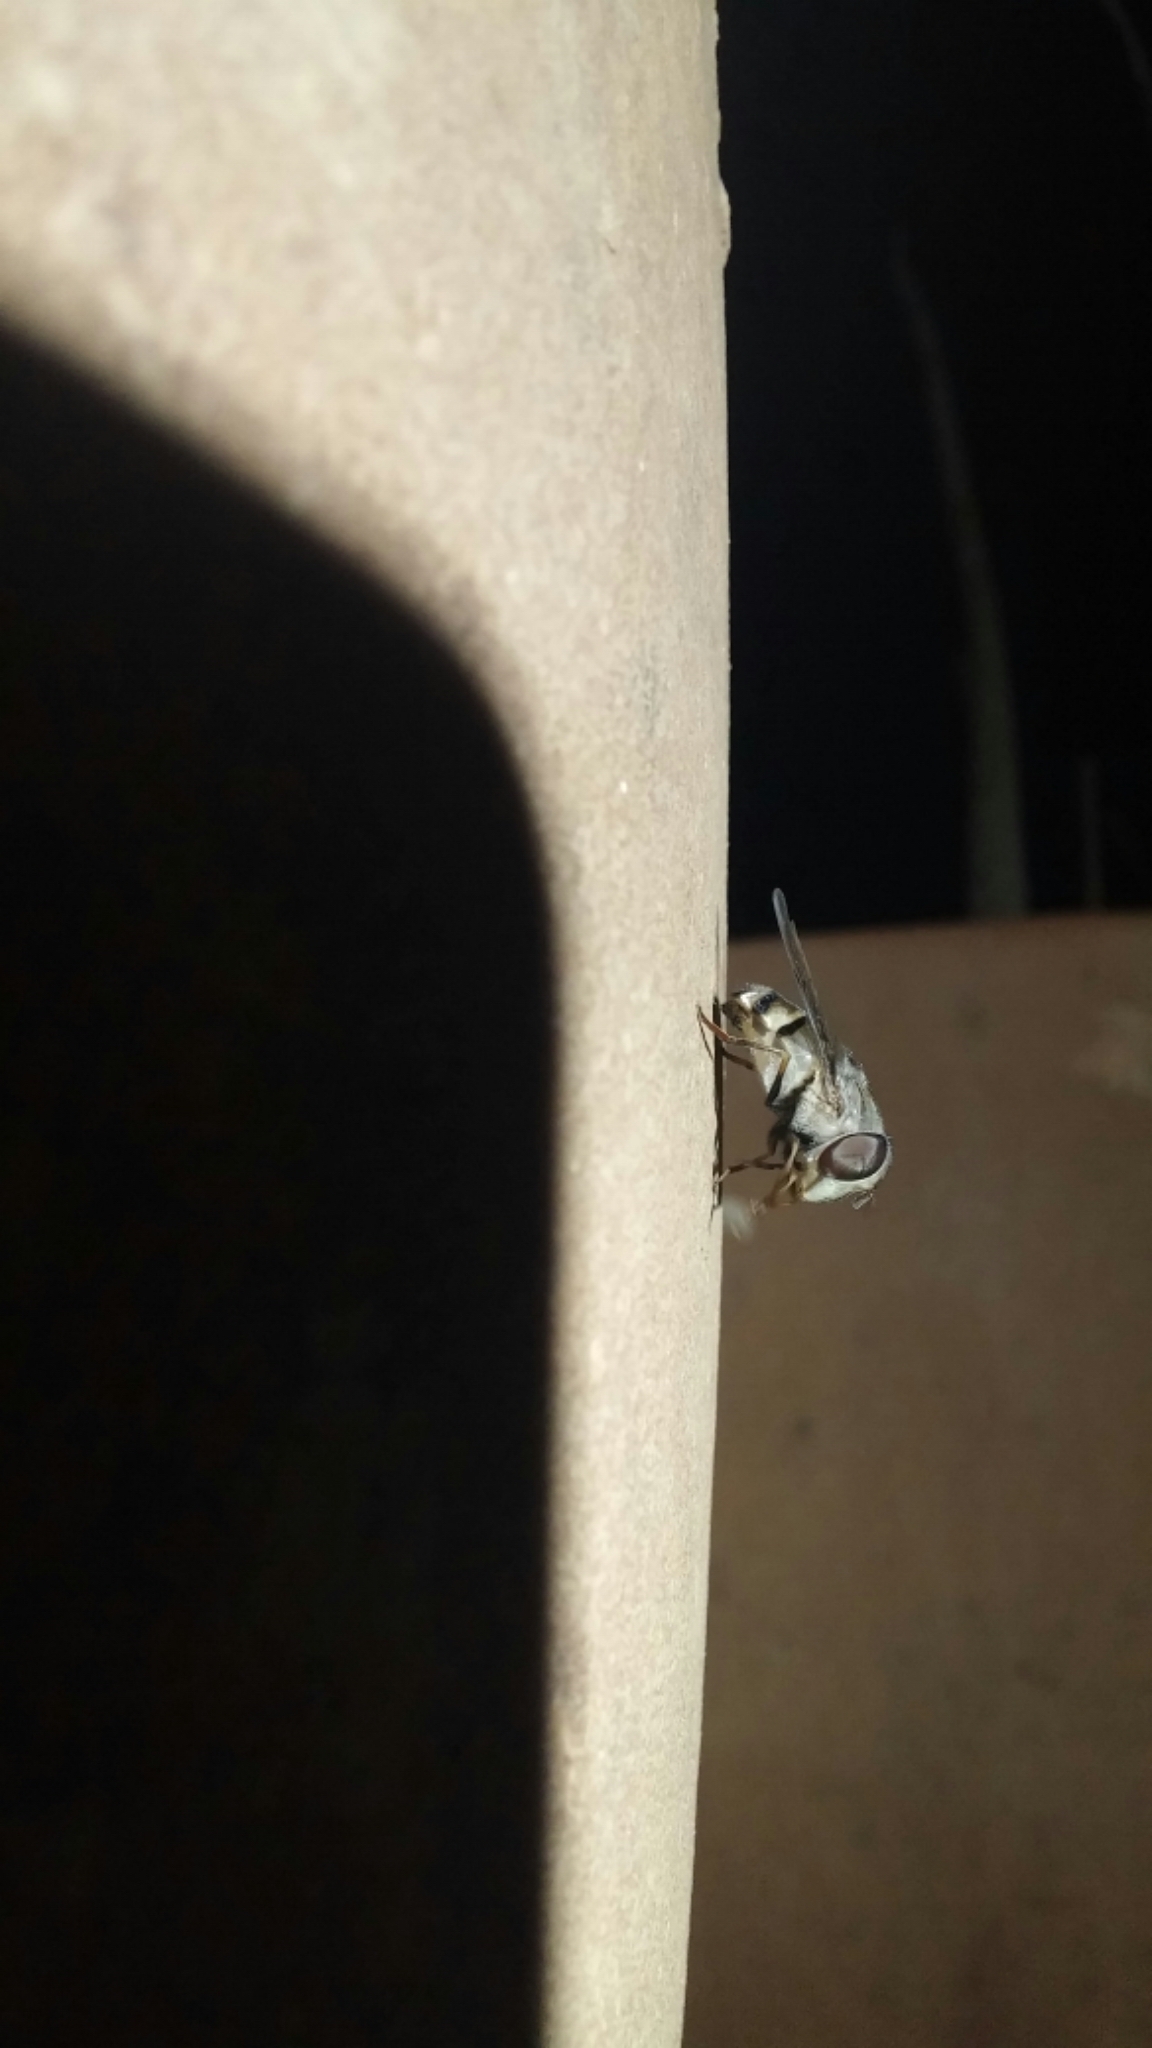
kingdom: Animalia
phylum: Arthropoda
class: Insecta
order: Diptera
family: Syrphidae
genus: Copestylum
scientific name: Copestylum isabellina
